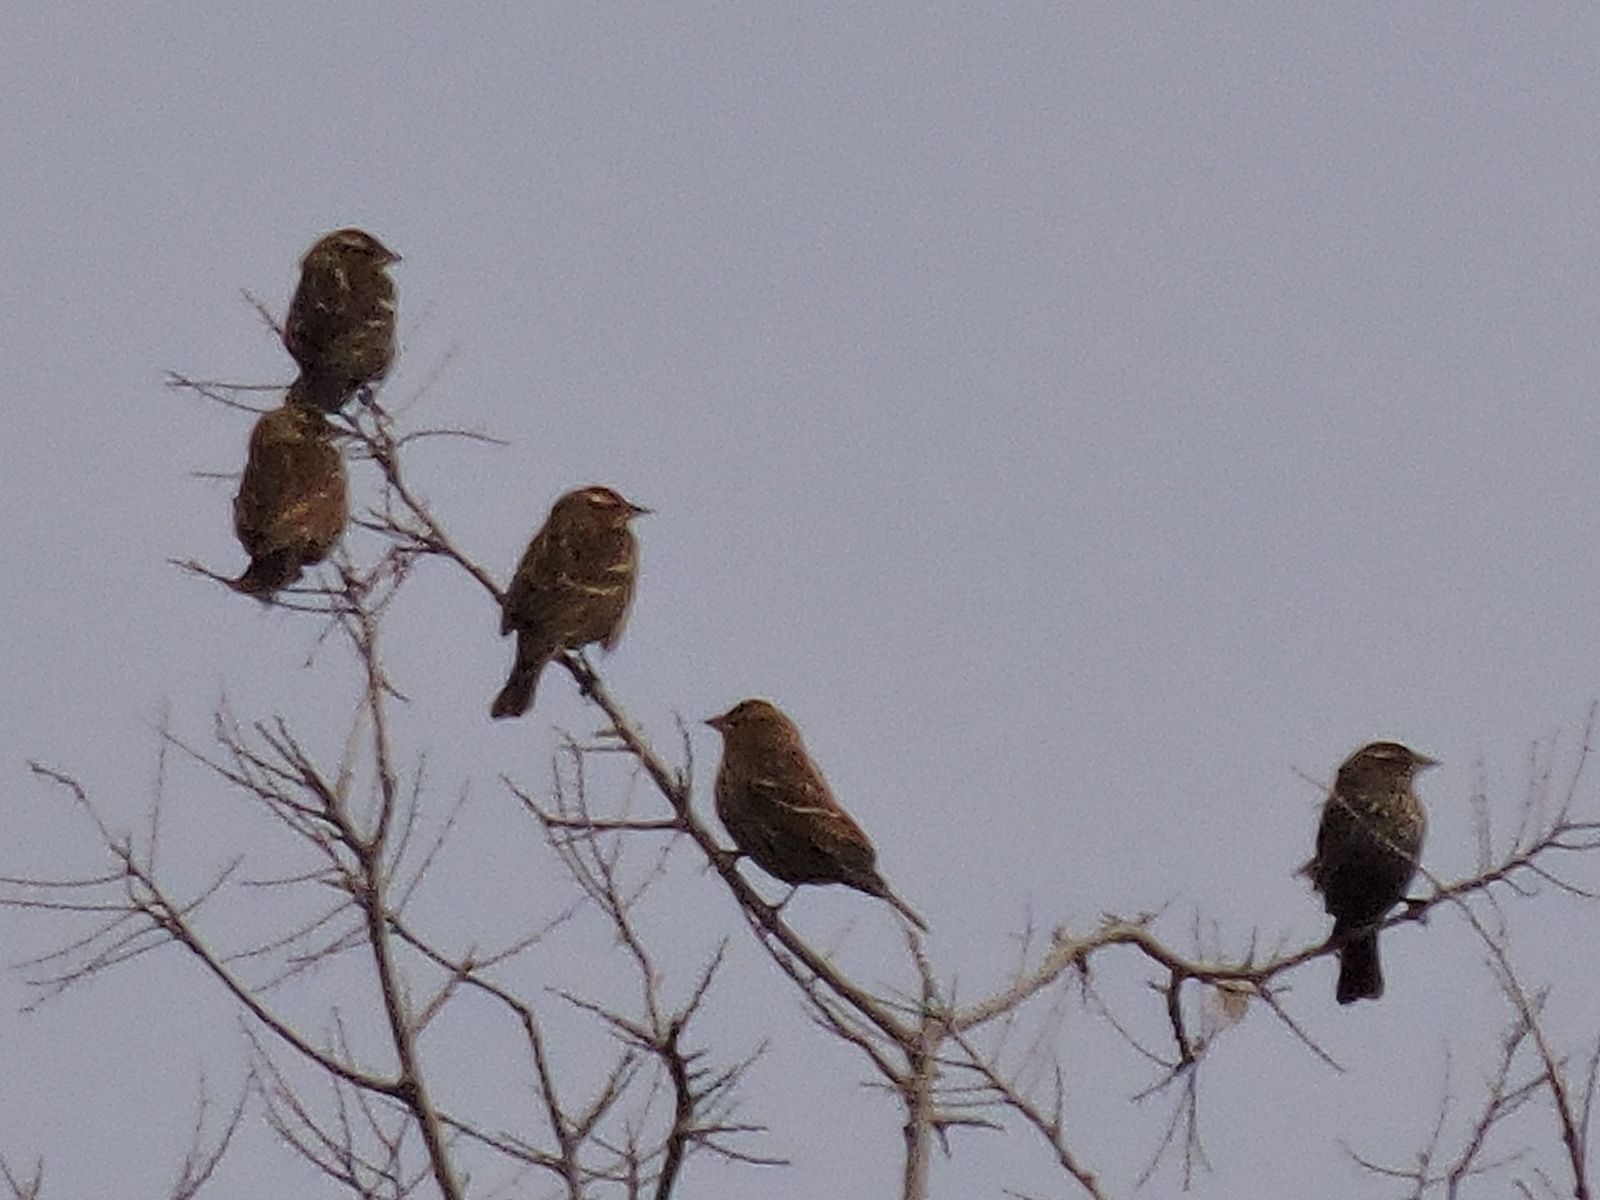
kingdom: Animalia
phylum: Chordata
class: Aves
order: Passeriformes
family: Icteridae
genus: Agelaius
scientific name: Agelaius phoeniceus
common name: Red-winged blackbird
